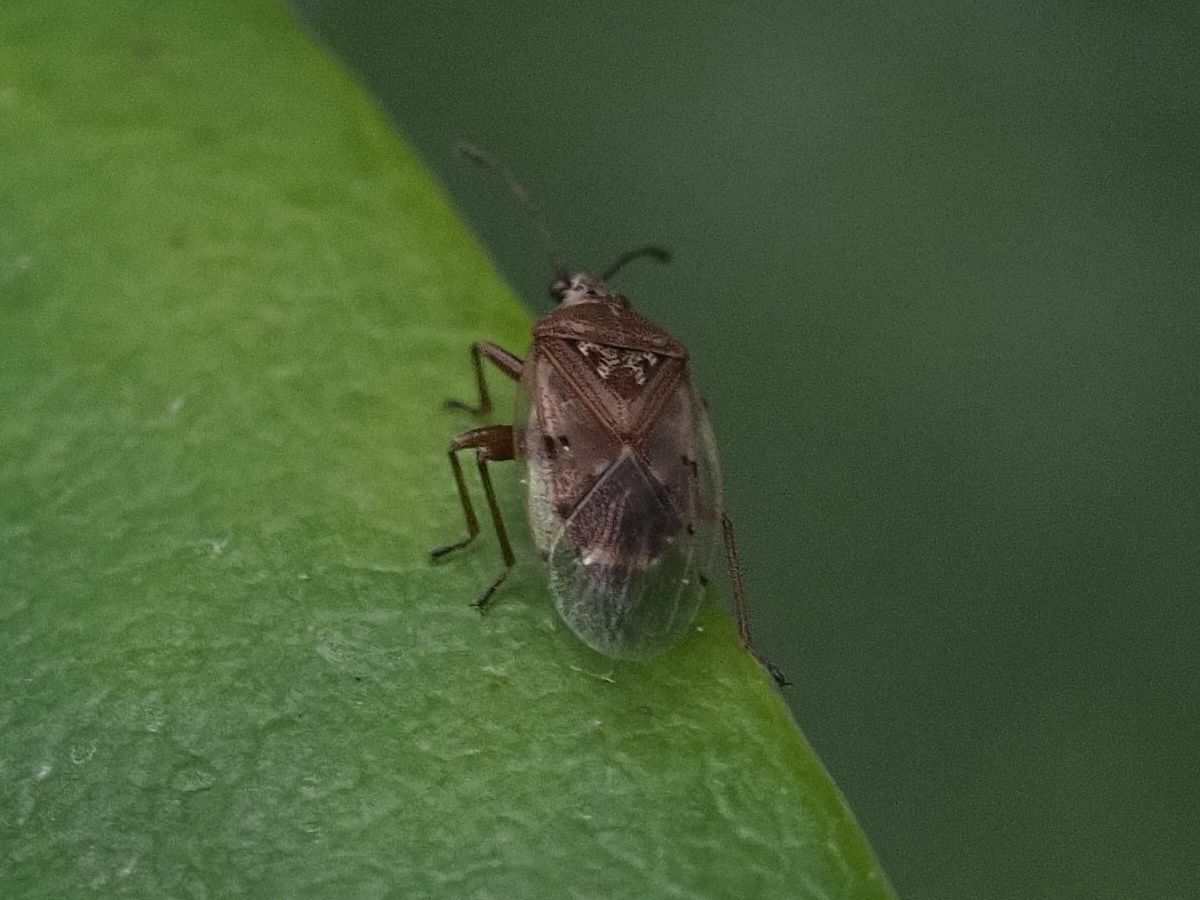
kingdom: Animalia
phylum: Arthropoda
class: Insecta
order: Hemiptera
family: Lygaeidae
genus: Kleidocerys
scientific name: Kleidocerys resedae
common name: Birch catkin bug
